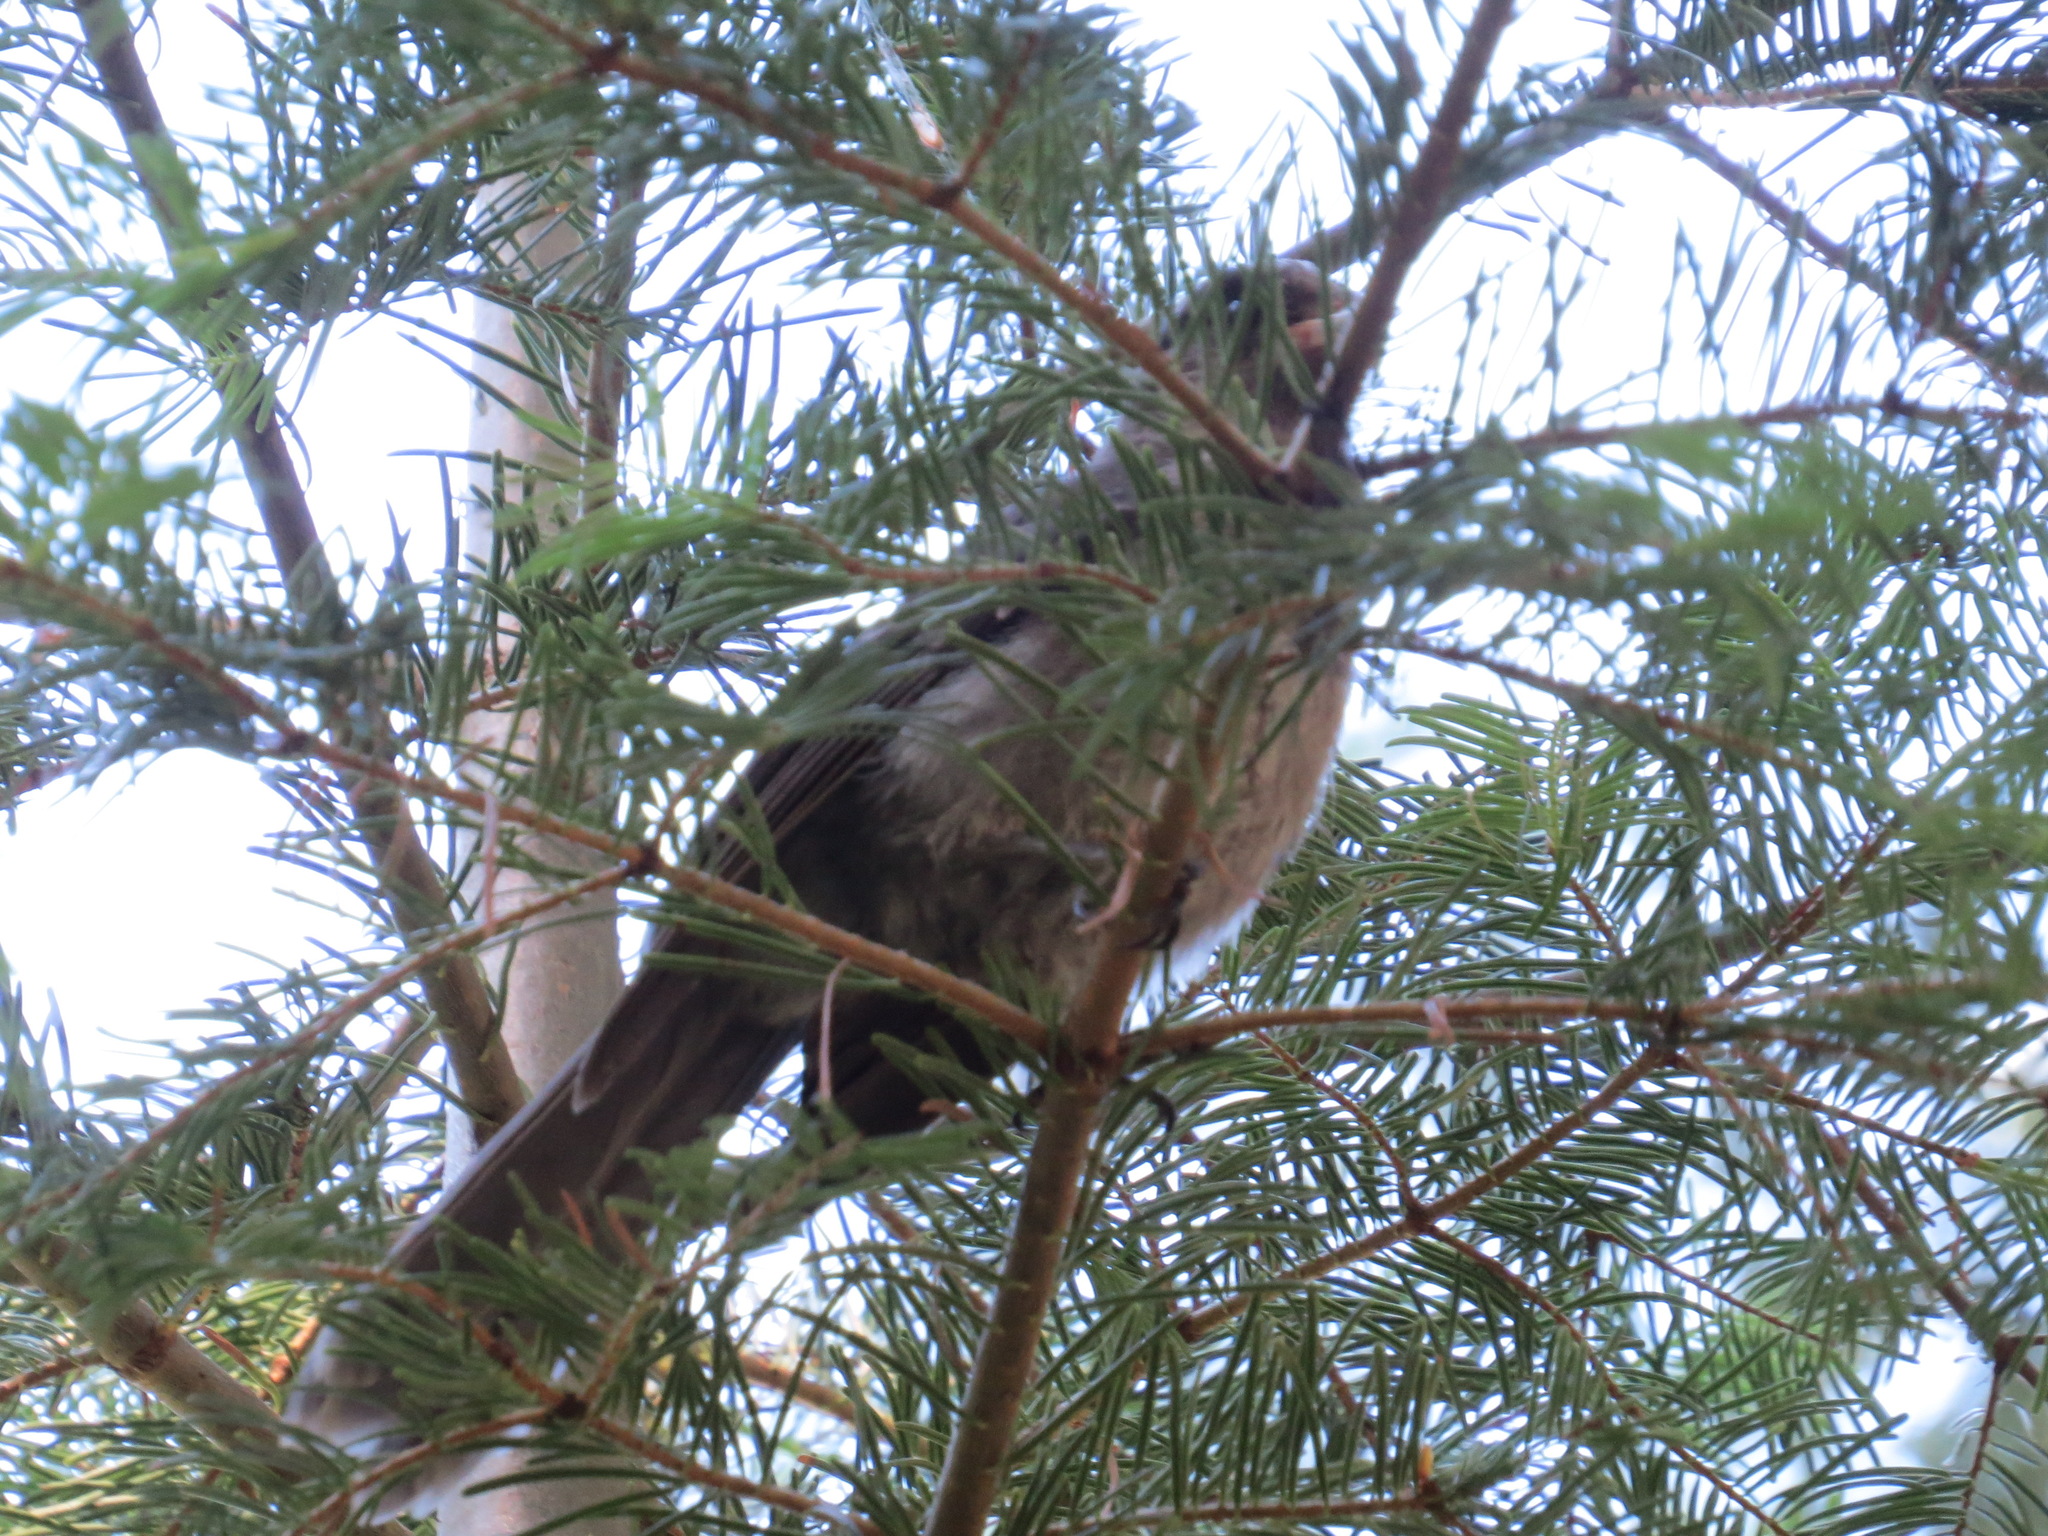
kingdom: Animalia
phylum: Chordata
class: Aves
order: Passeriformes
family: Corvidae
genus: Perisoreus
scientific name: Perisoreus canadensis
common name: Gray jay
